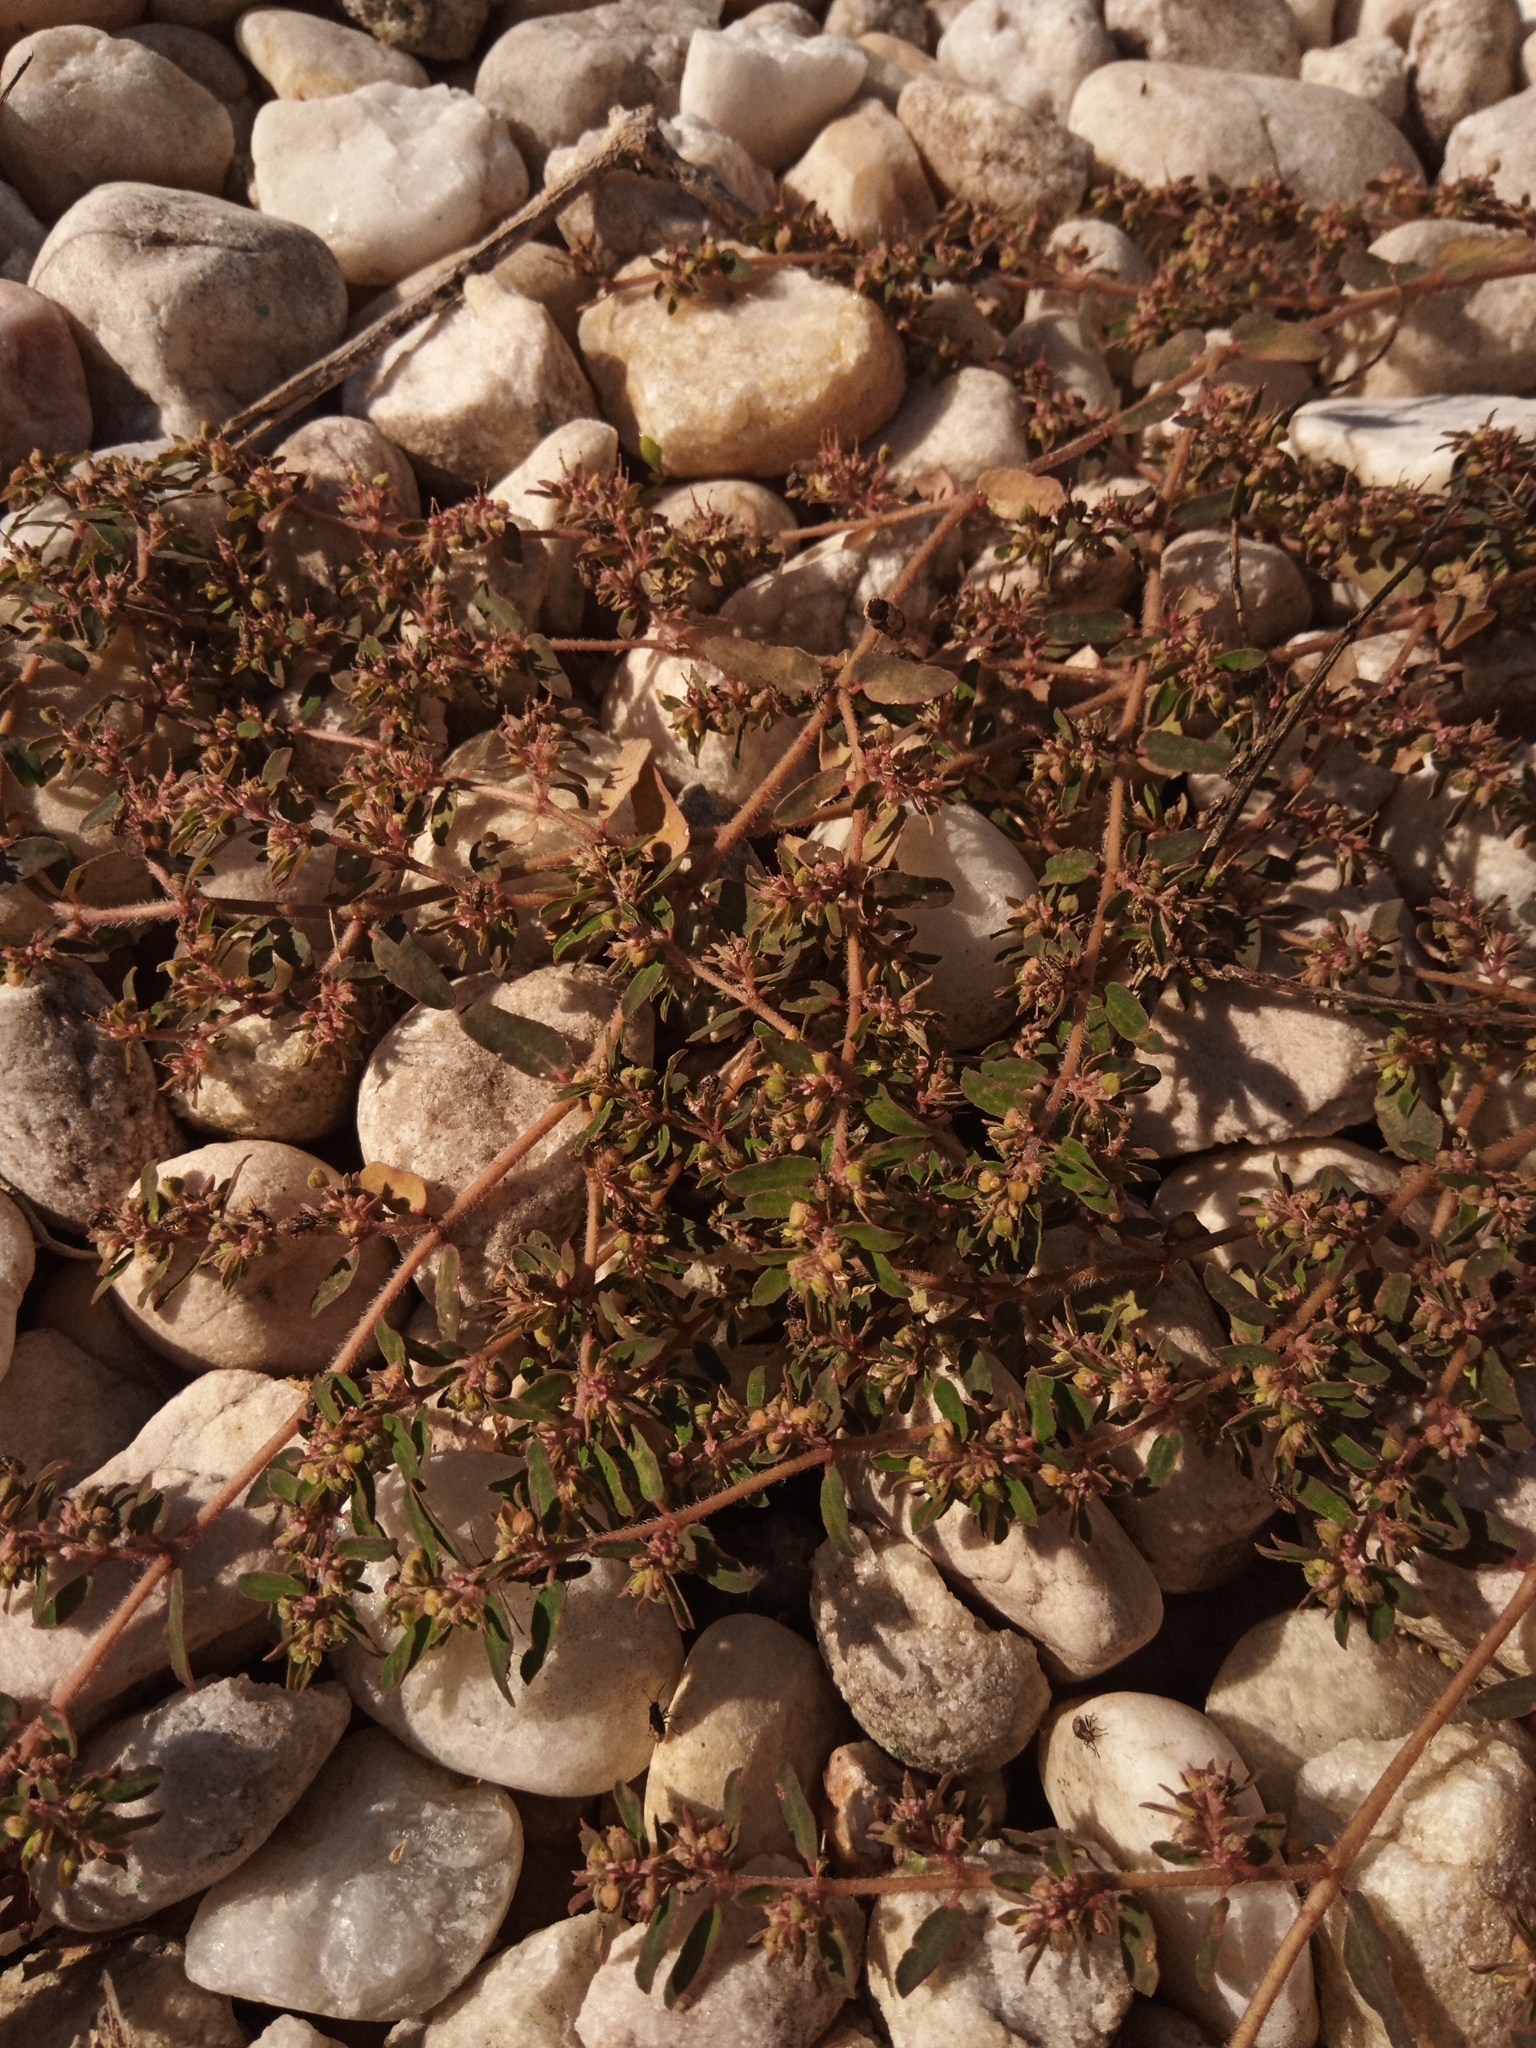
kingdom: Plantae
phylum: Tracheophyta
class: Magnoliopsida
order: Malpighiales
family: Euphorbiaceae
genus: Euphorbia
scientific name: Euphorbia maculata
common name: Spotted spurge
